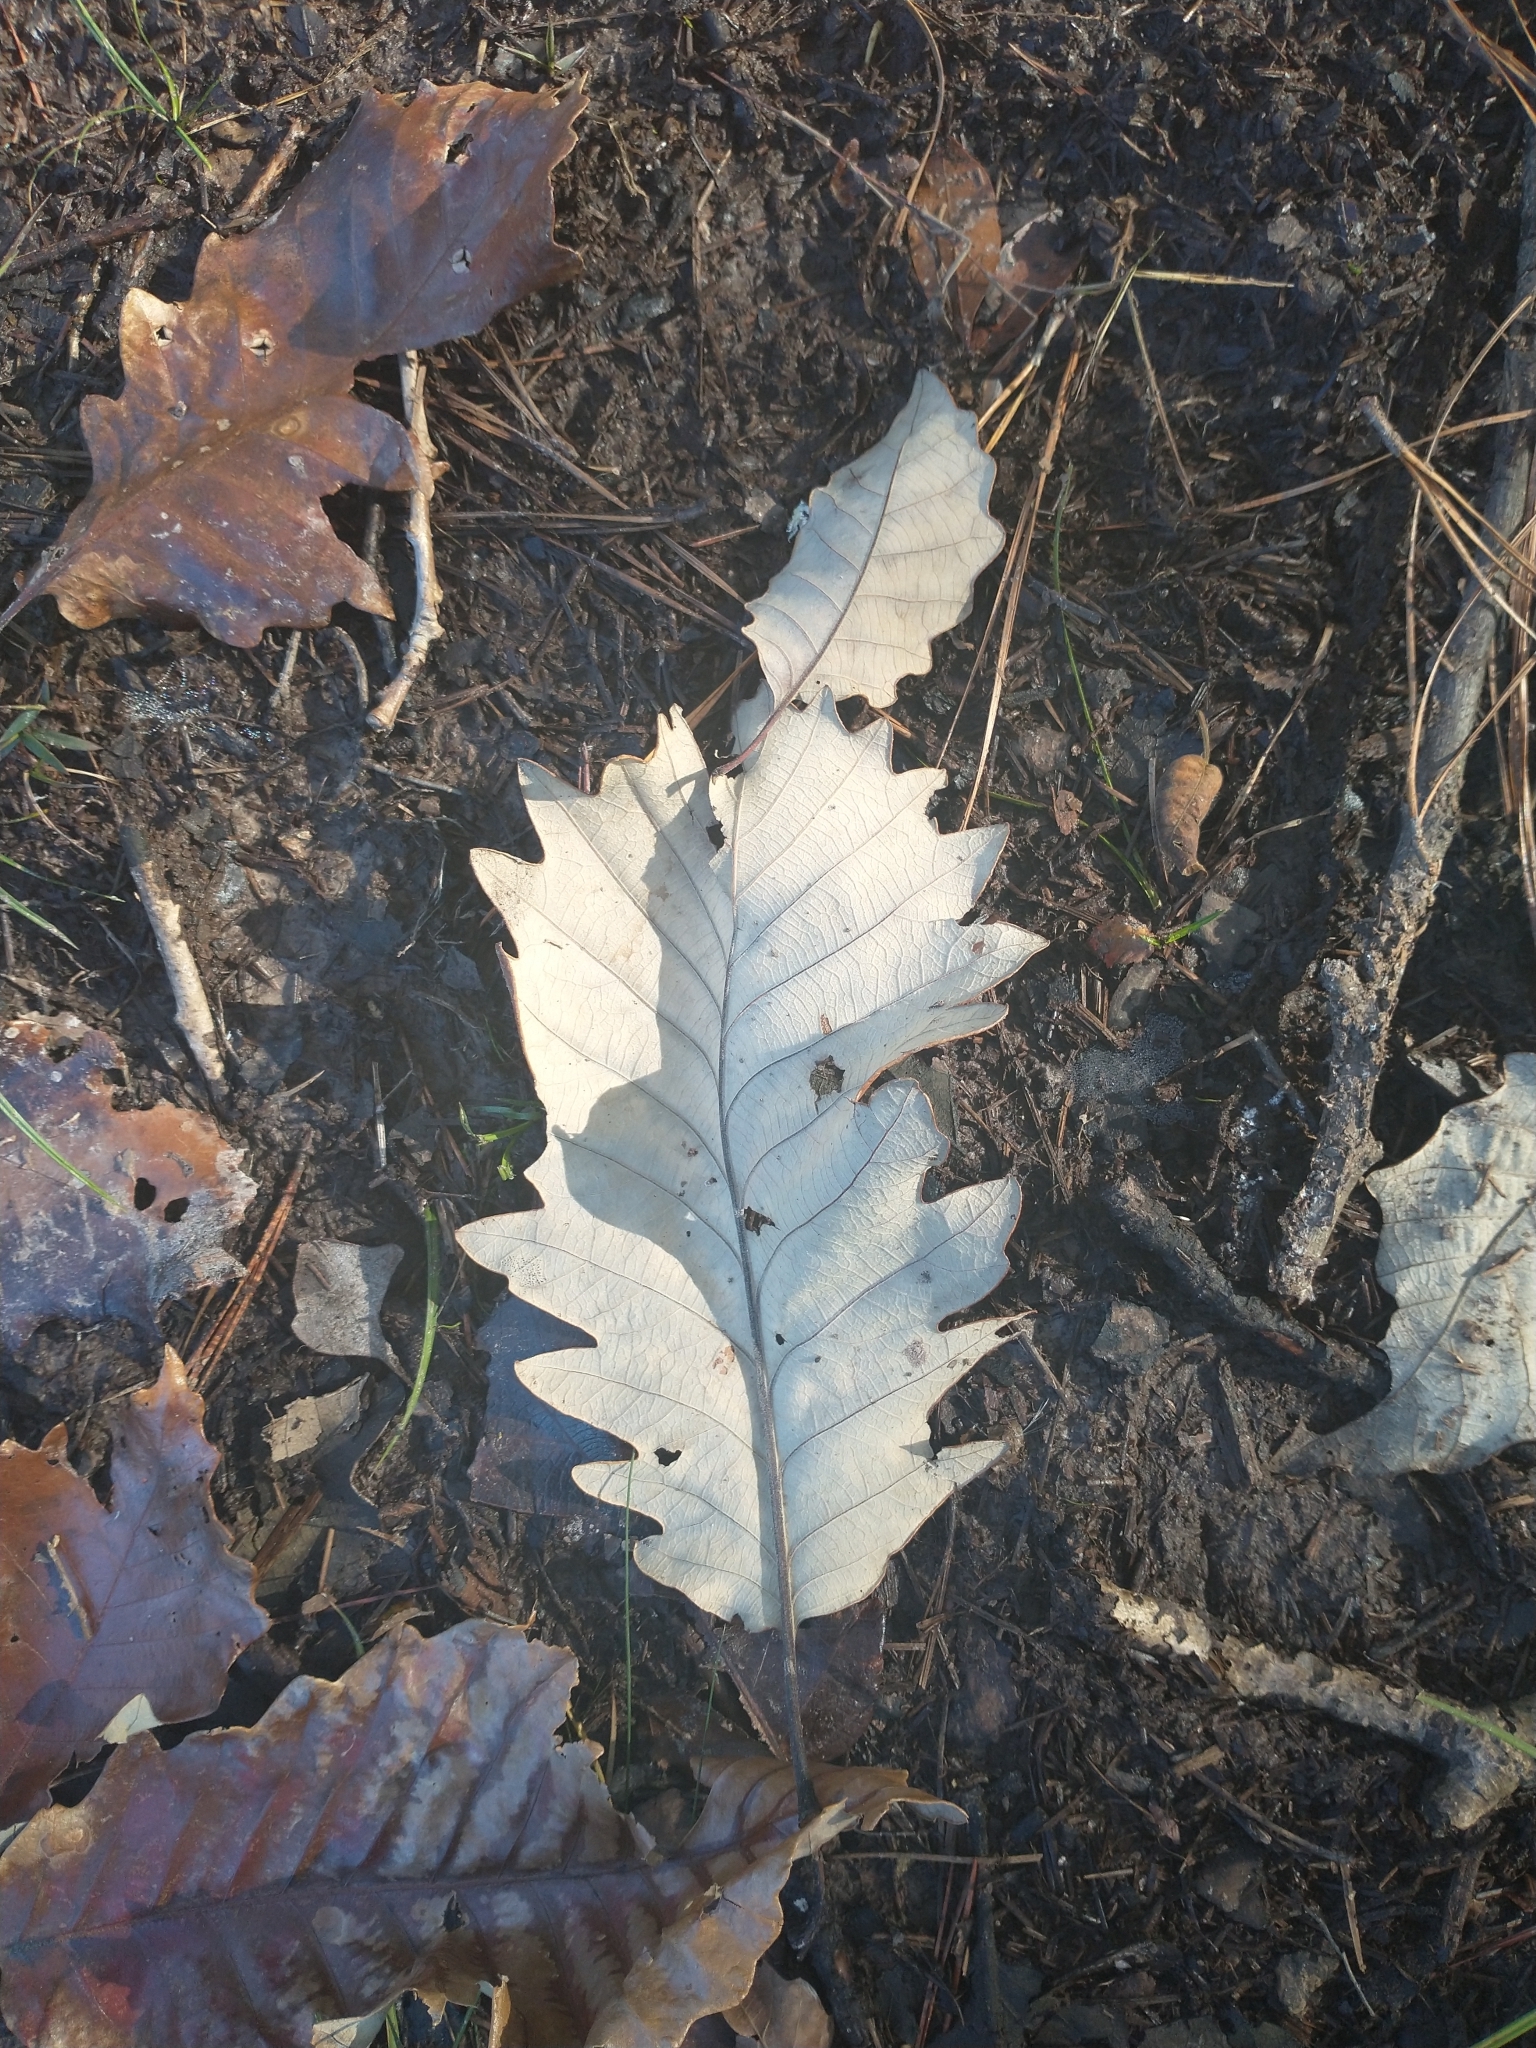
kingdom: Plantae
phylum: Tracheophyta
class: Magnoliopsida
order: Fagales
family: Fagaceae
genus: Quercus
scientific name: Quercus michauxii
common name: Swamp chestnut oak
